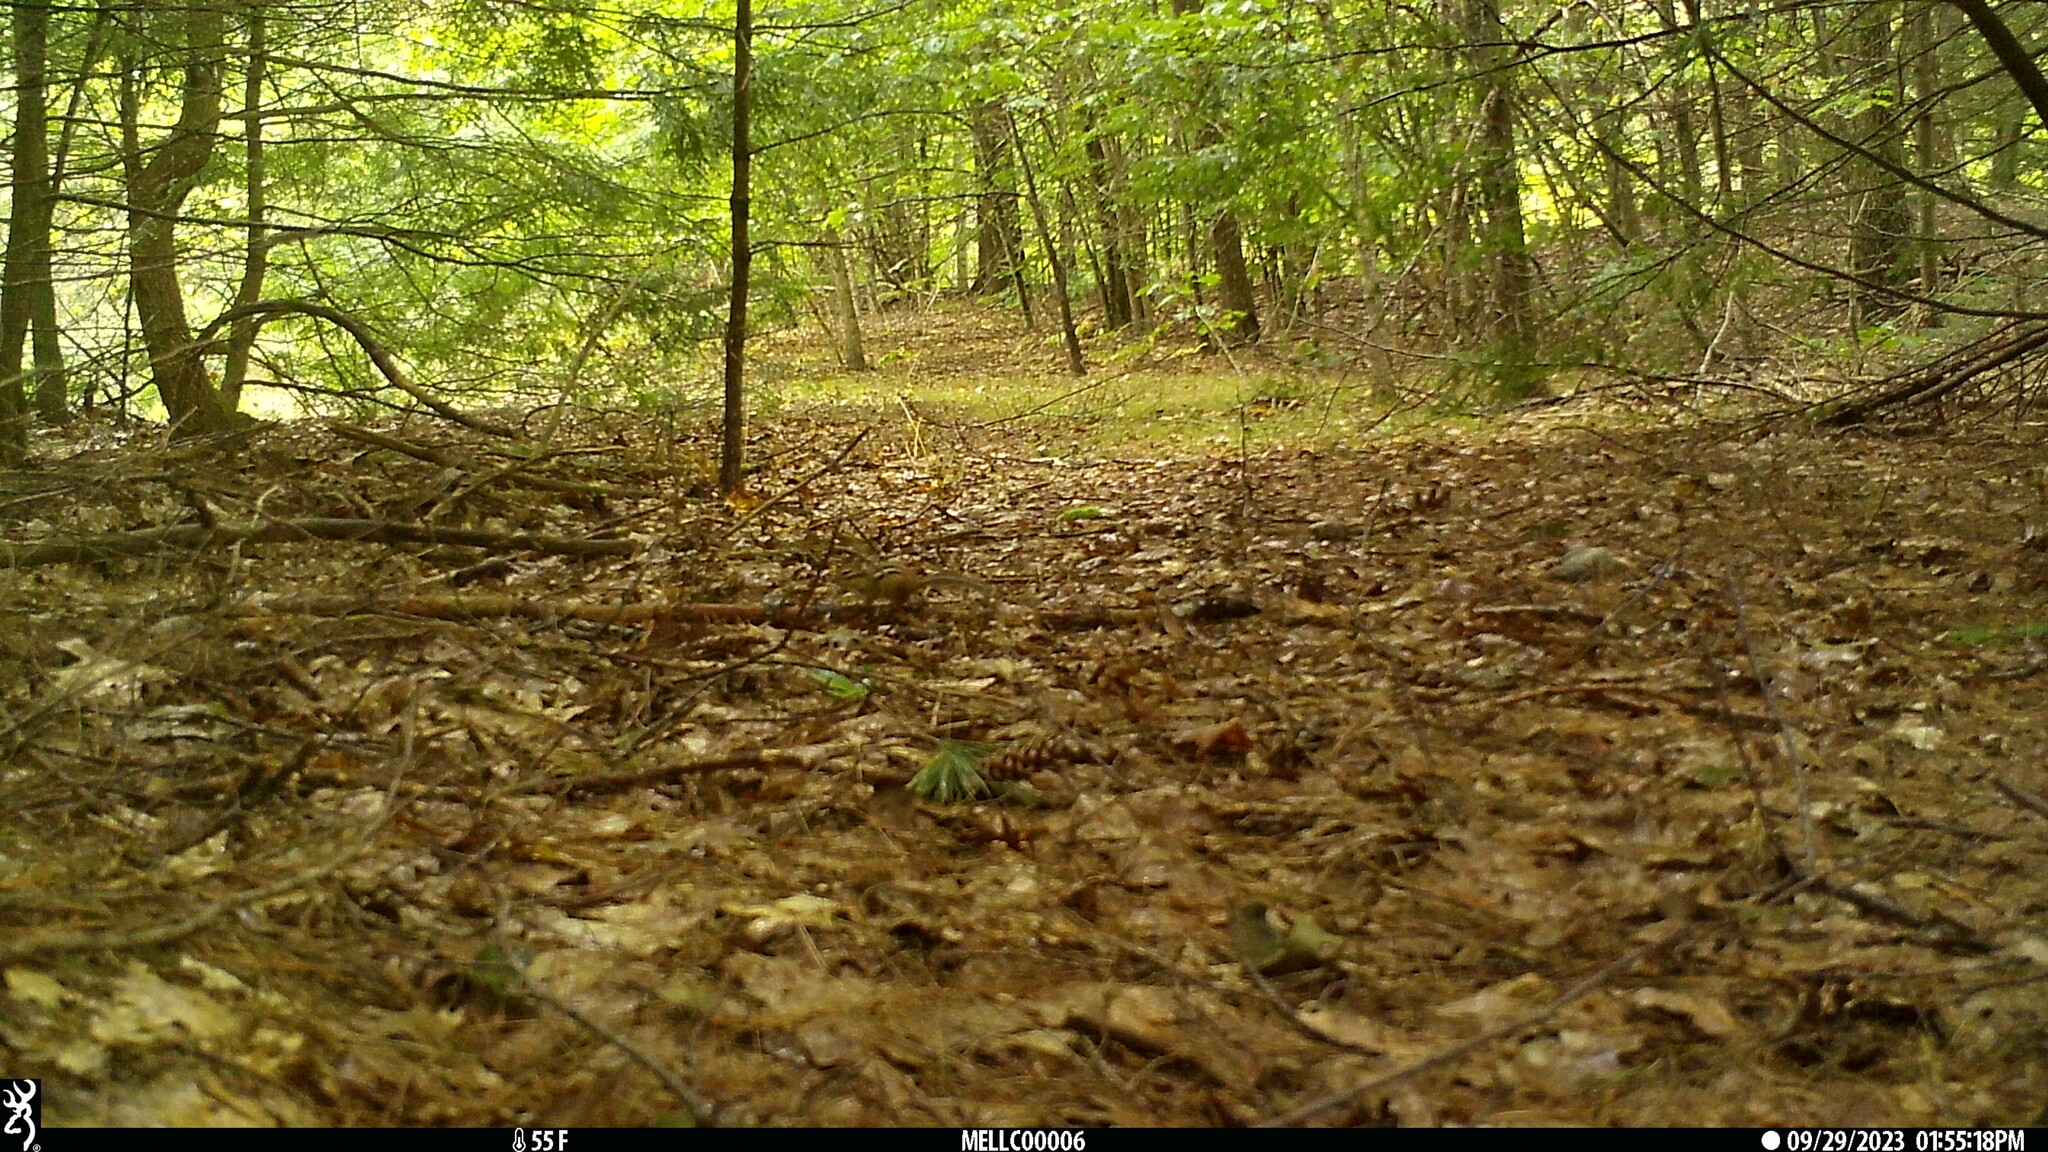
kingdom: Animalia
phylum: Chordata
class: Mammalia
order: Rodentia
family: Sciuridae
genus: Tamias
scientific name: Tamias striatus
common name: Eastern chipmunk
